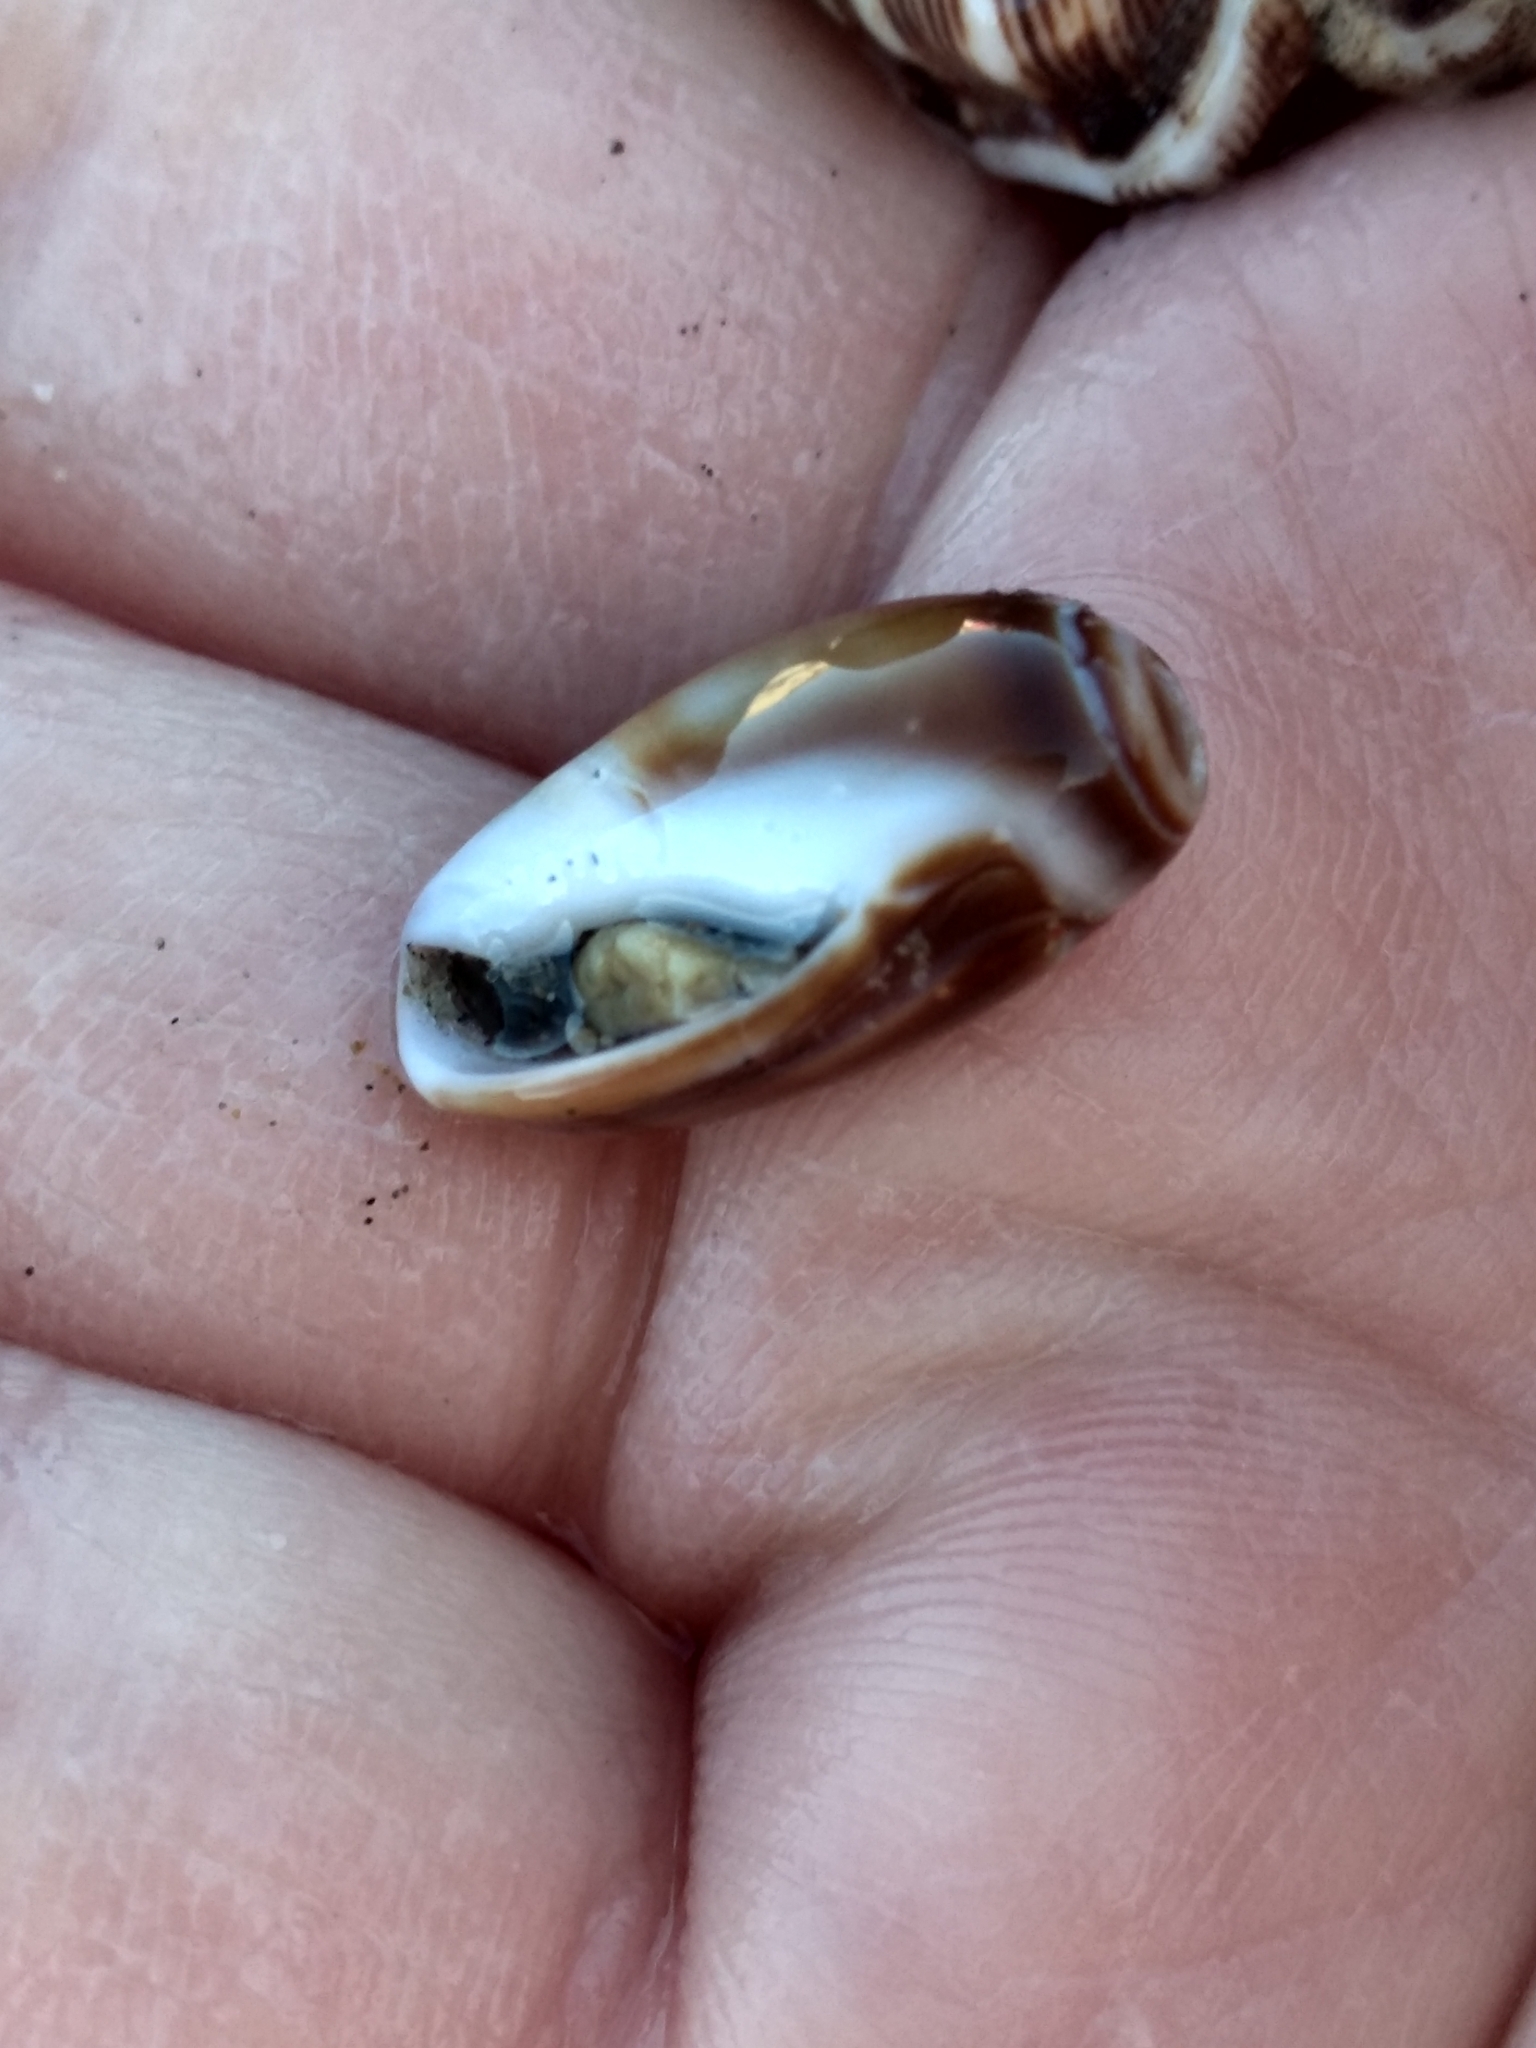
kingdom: Animalia
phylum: Mollusca
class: Gastropoda
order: Neogastropoda
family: Olividae
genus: Callianax
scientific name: Callianax biplicata
